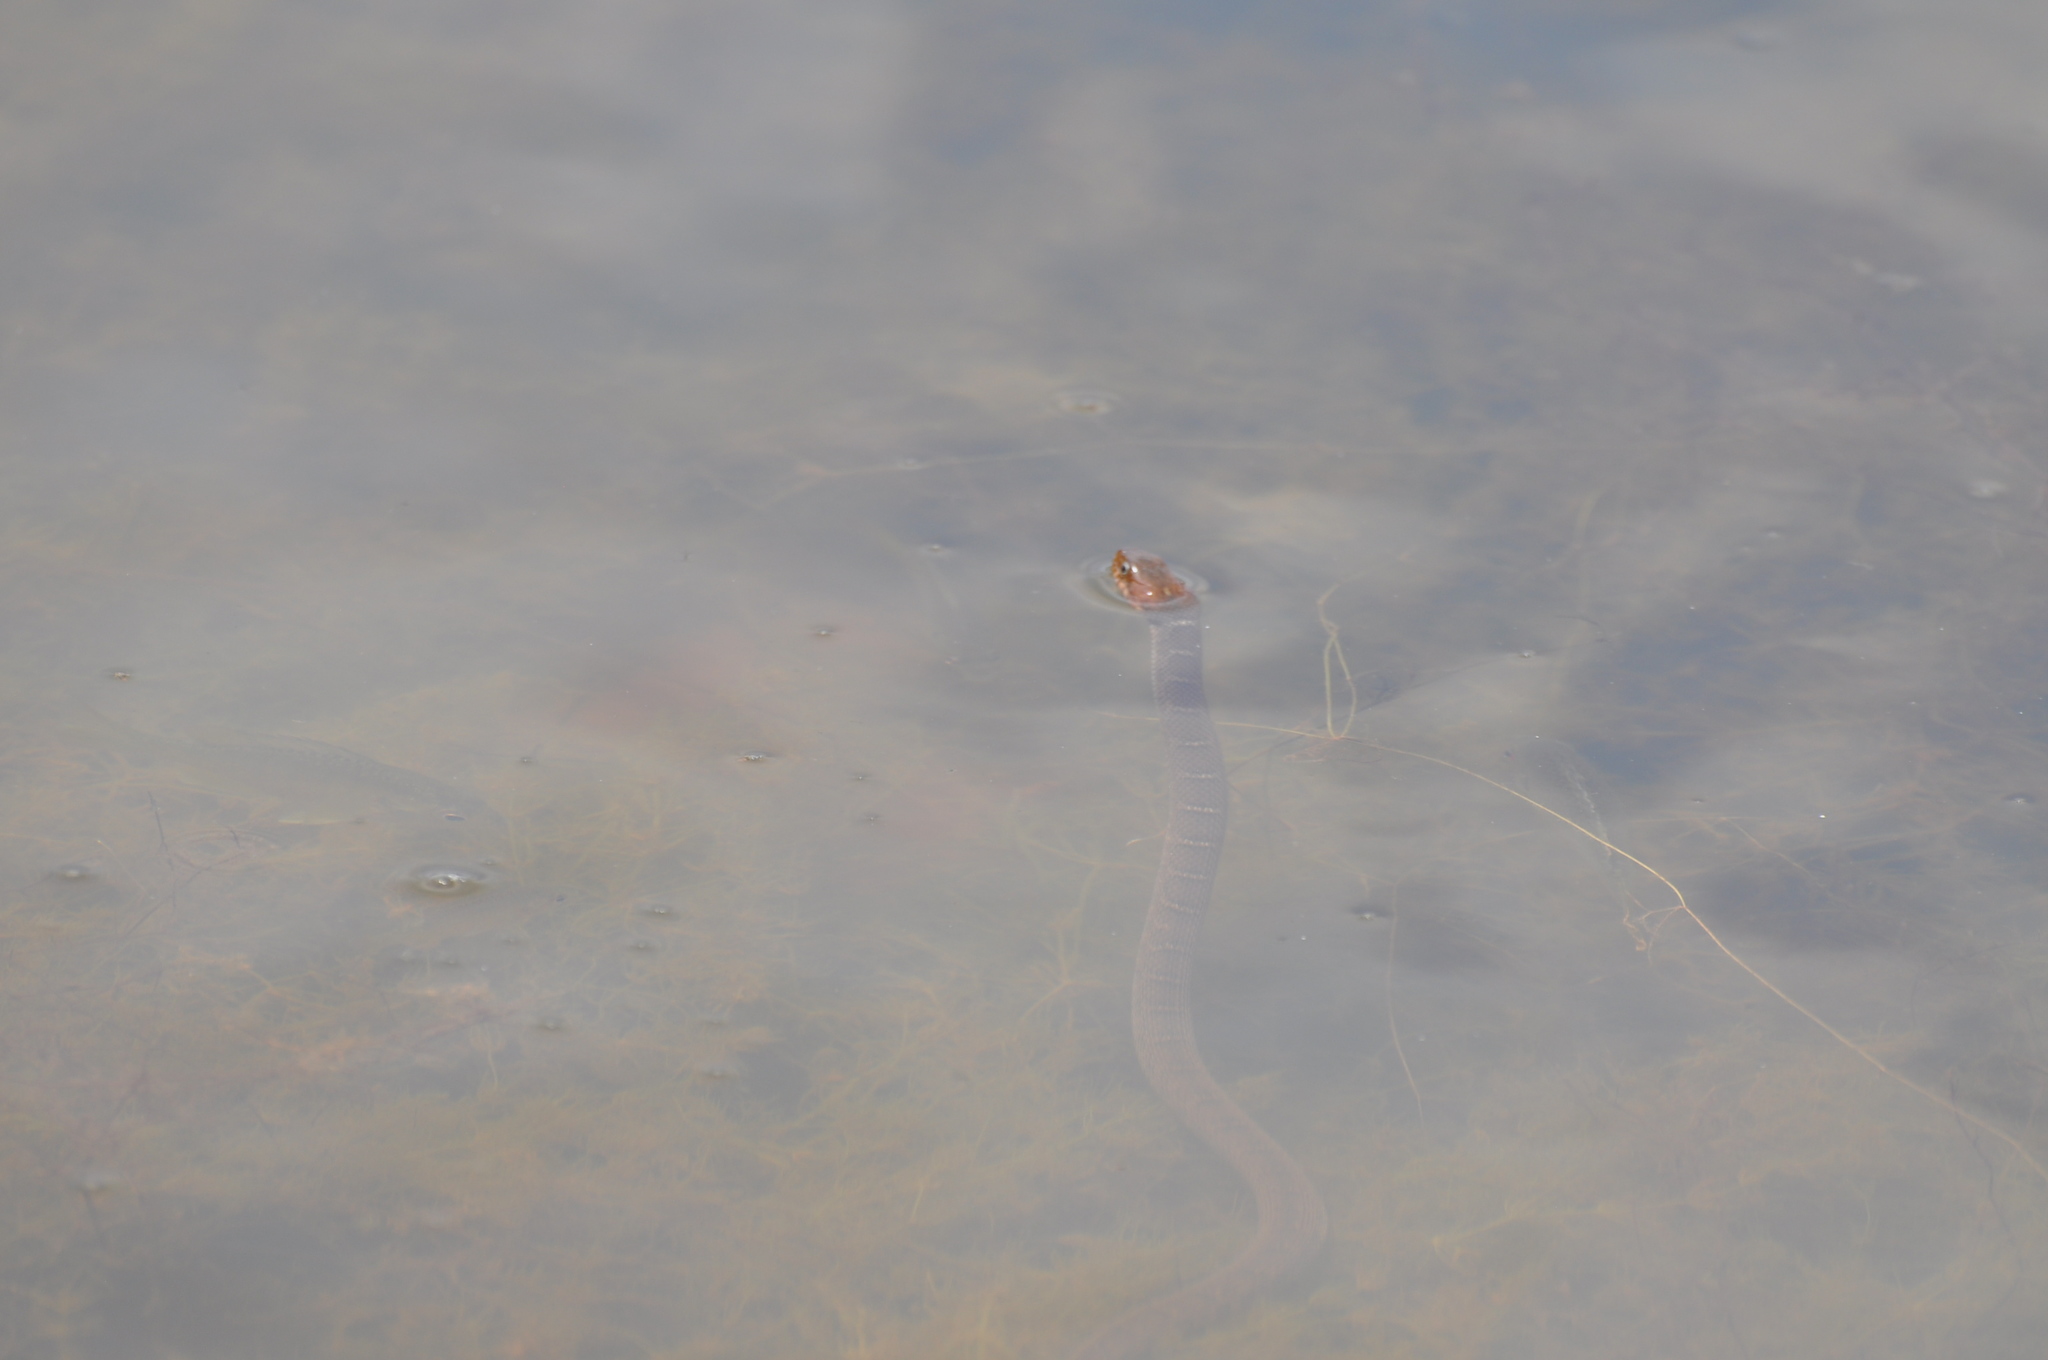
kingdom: Animalia
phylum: Chordata
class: Squamata
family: Colubridae
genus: Nerodia
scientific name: Nerodia erythrogaster
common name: Plainbelly water snake
